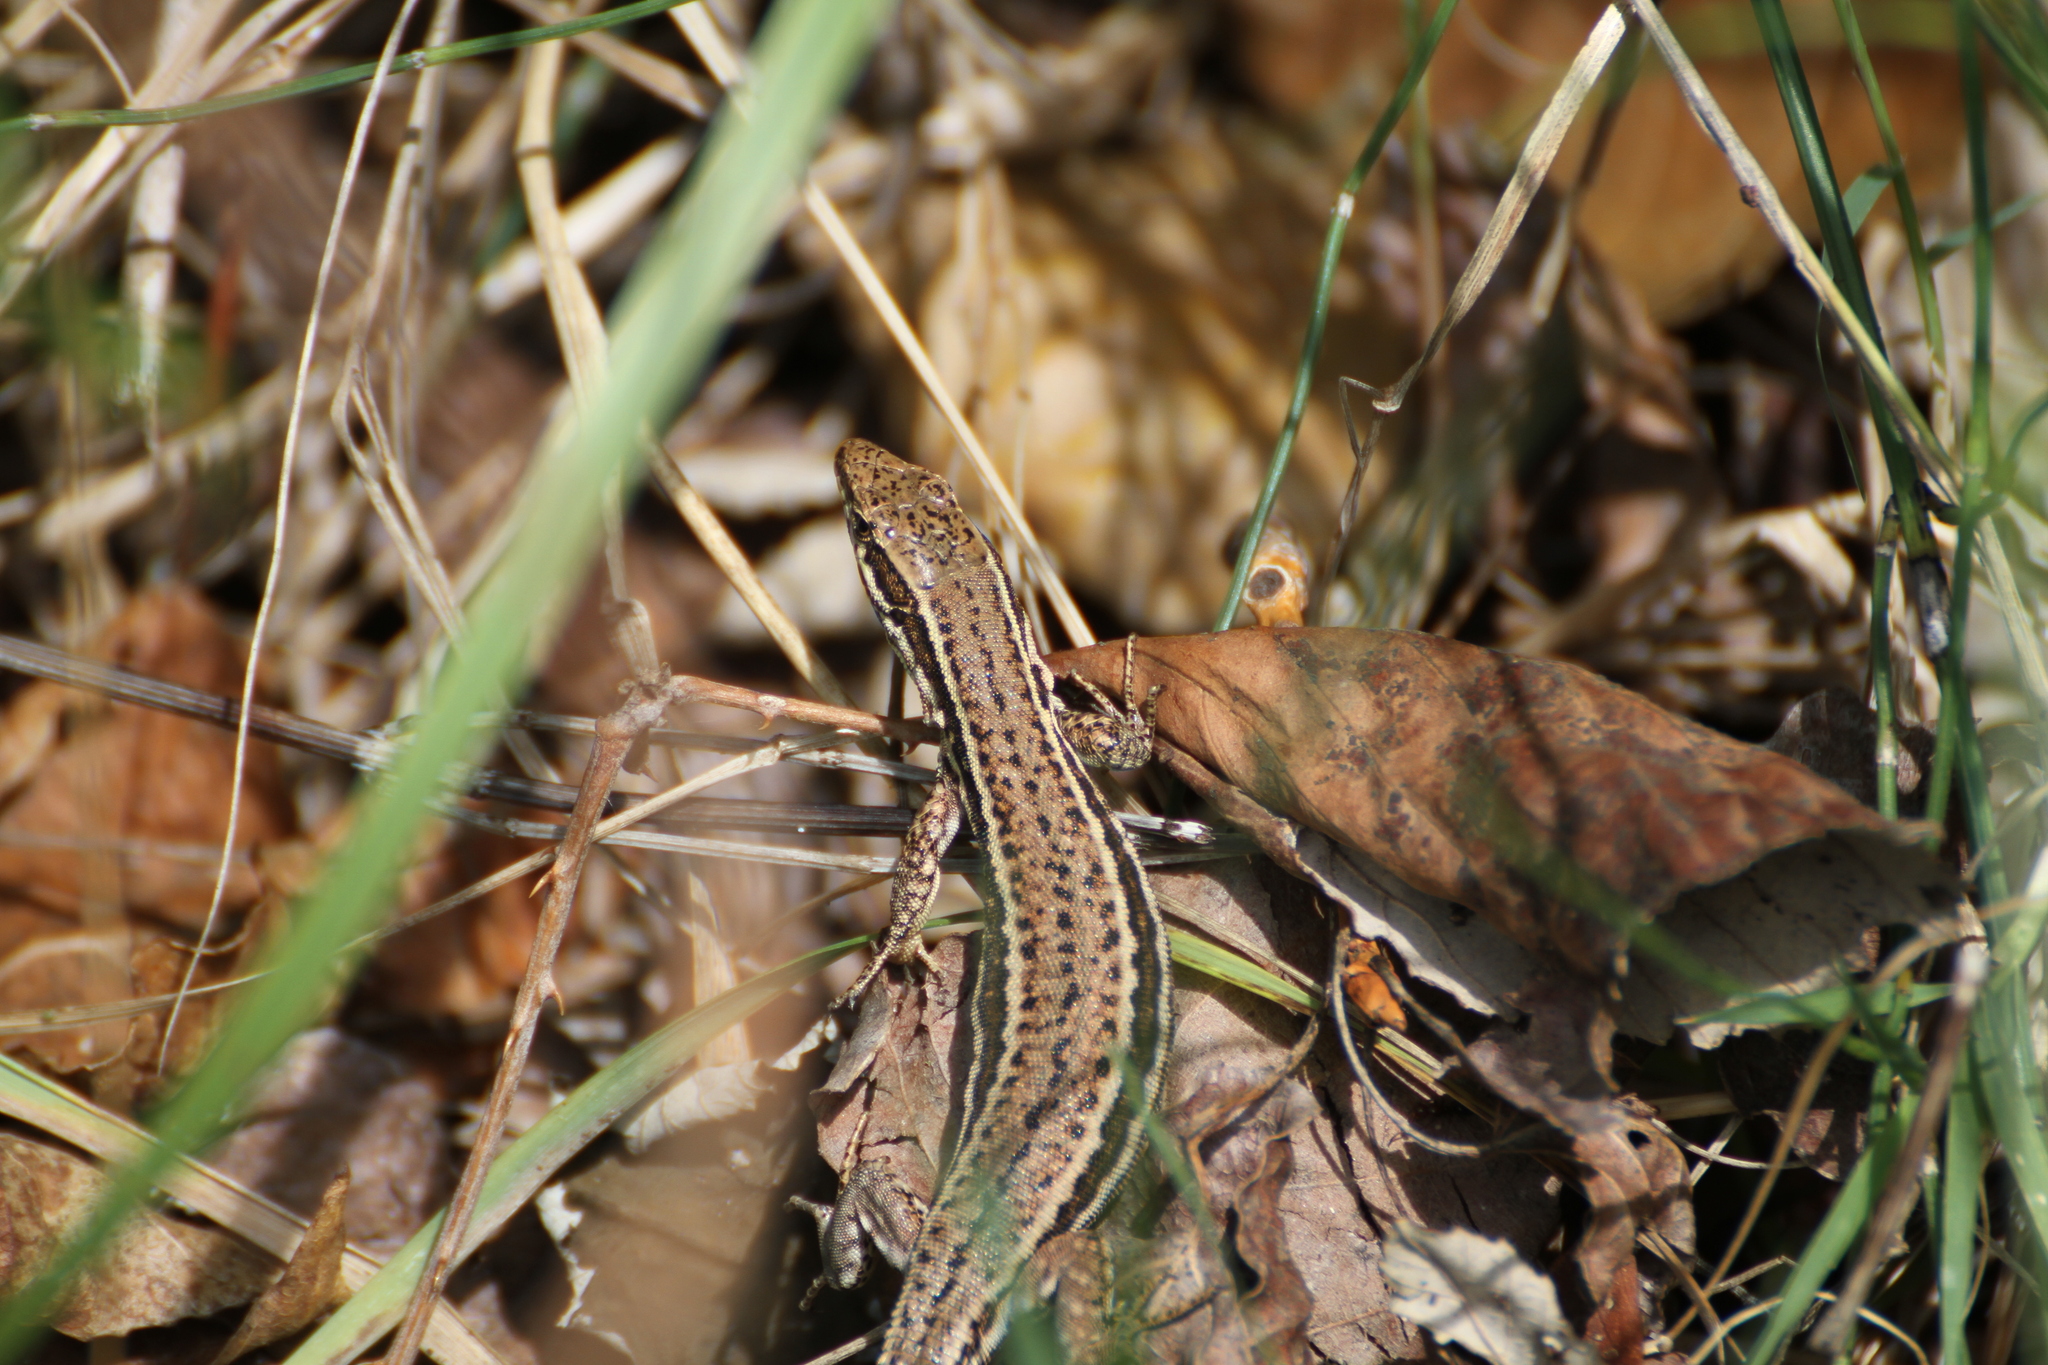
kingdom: Animalia
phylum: Chordata
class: Squamata
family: Lacertidae
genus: Podarcis
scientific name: Podarcis muralis
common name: Common wall lizard
